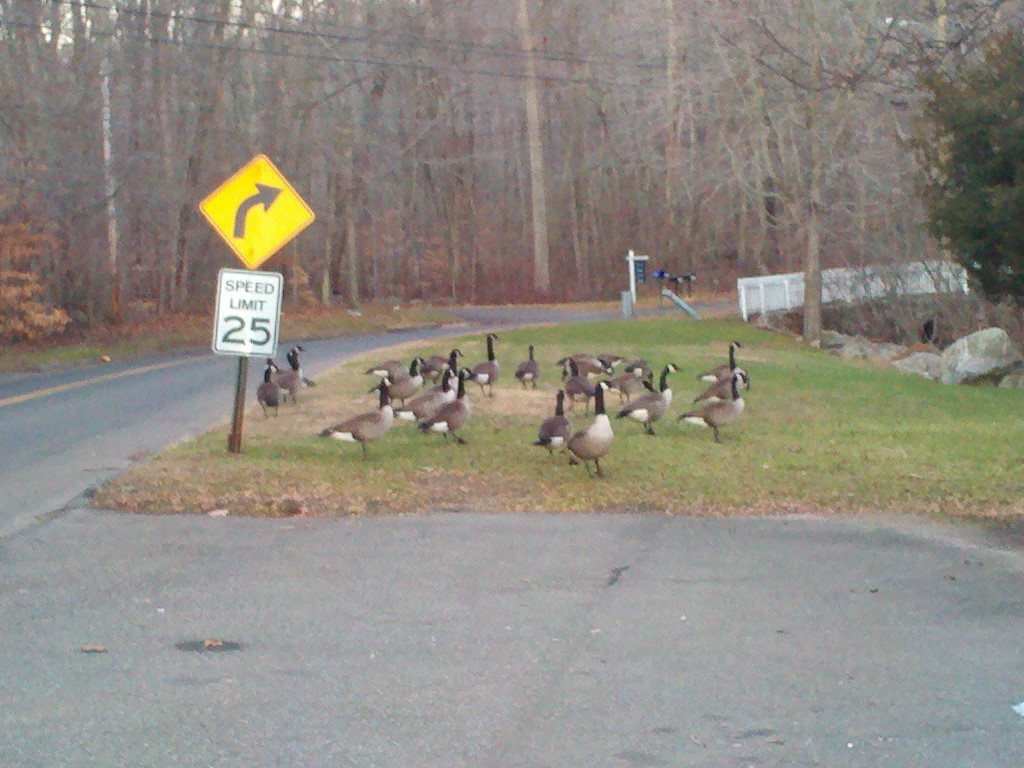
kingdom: Animalia
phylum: Chordata
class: Aves
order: Anseriformes
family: Anatidae
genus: Branta
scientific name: Branta canadensis
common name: Canada goose
